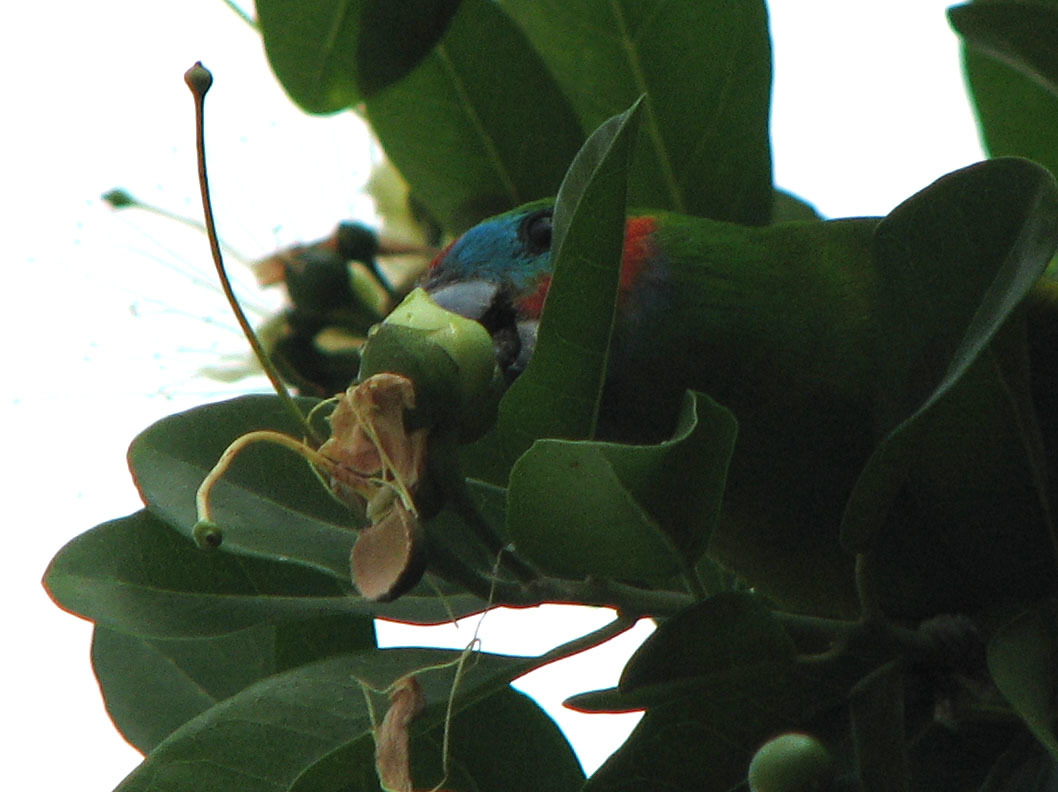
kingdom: Animalia
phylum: Chordata
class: Aves
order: Psittaciformes
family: Psittacidae
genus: Cyclopsitta
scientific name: Cyclopsitta diophthalma
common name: Double-eyed fig parrot
